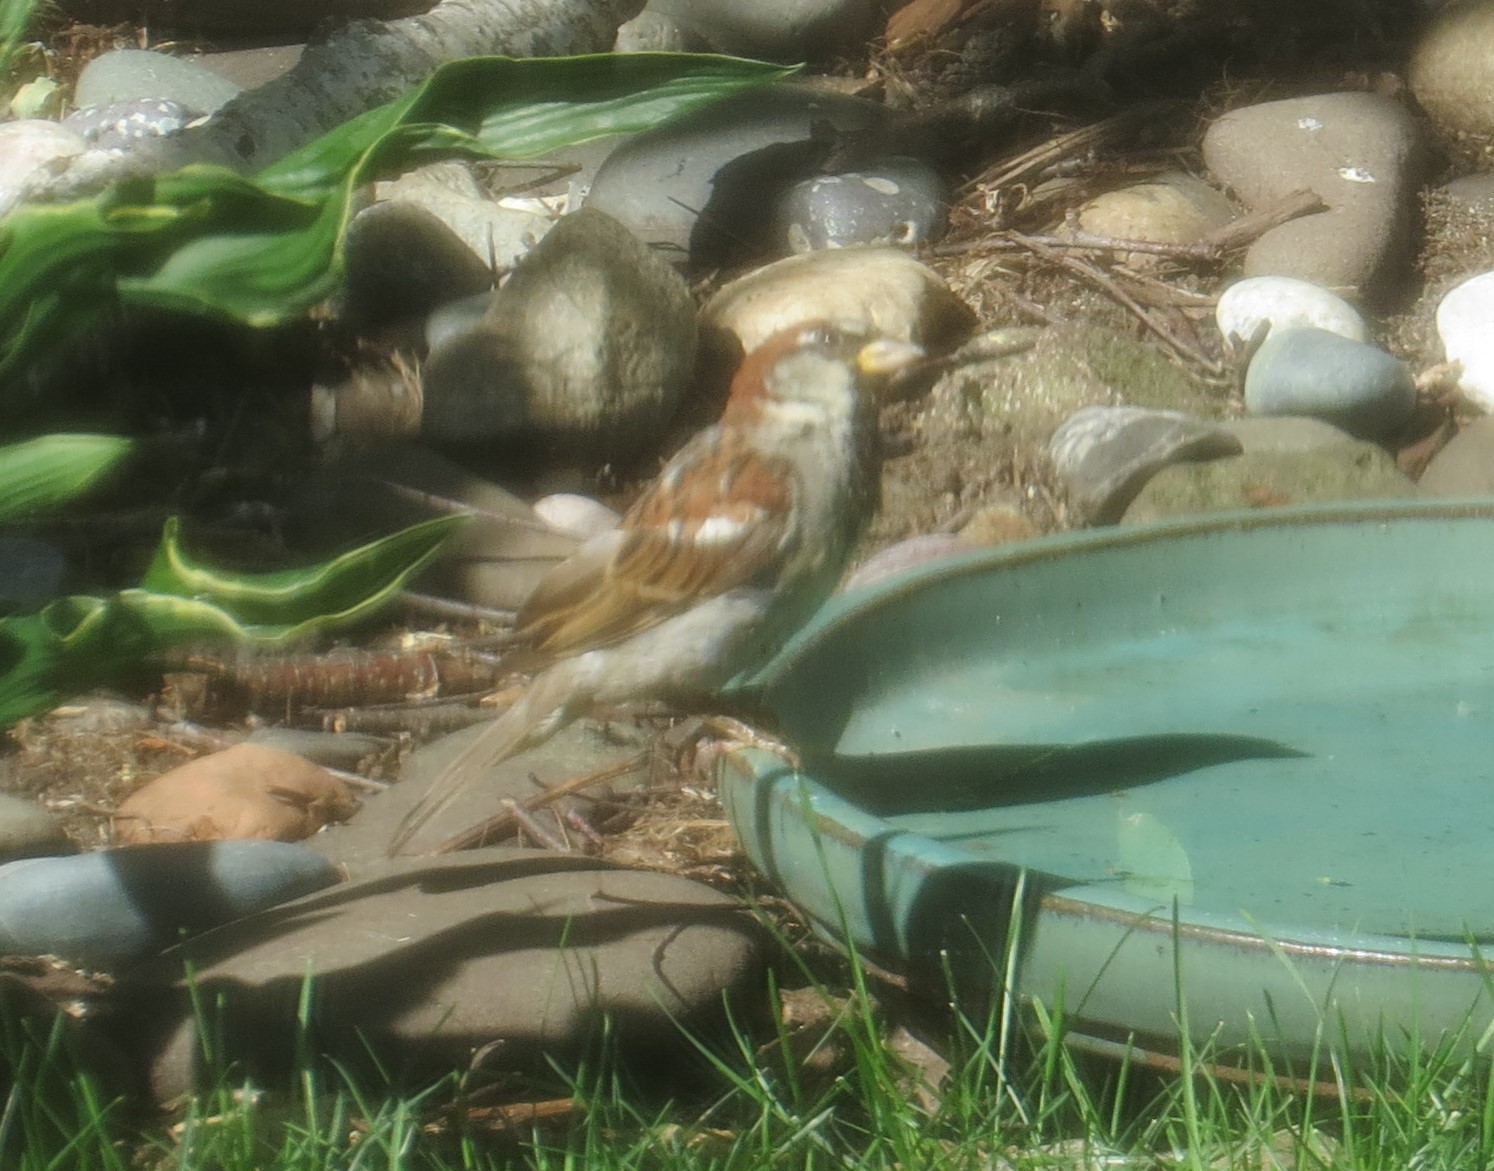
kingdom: Animalia
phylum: Chordata
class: Aves
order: Passeriformes
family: Passeridae
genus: Passer
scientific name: Passer domesticus
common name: House sparrow
